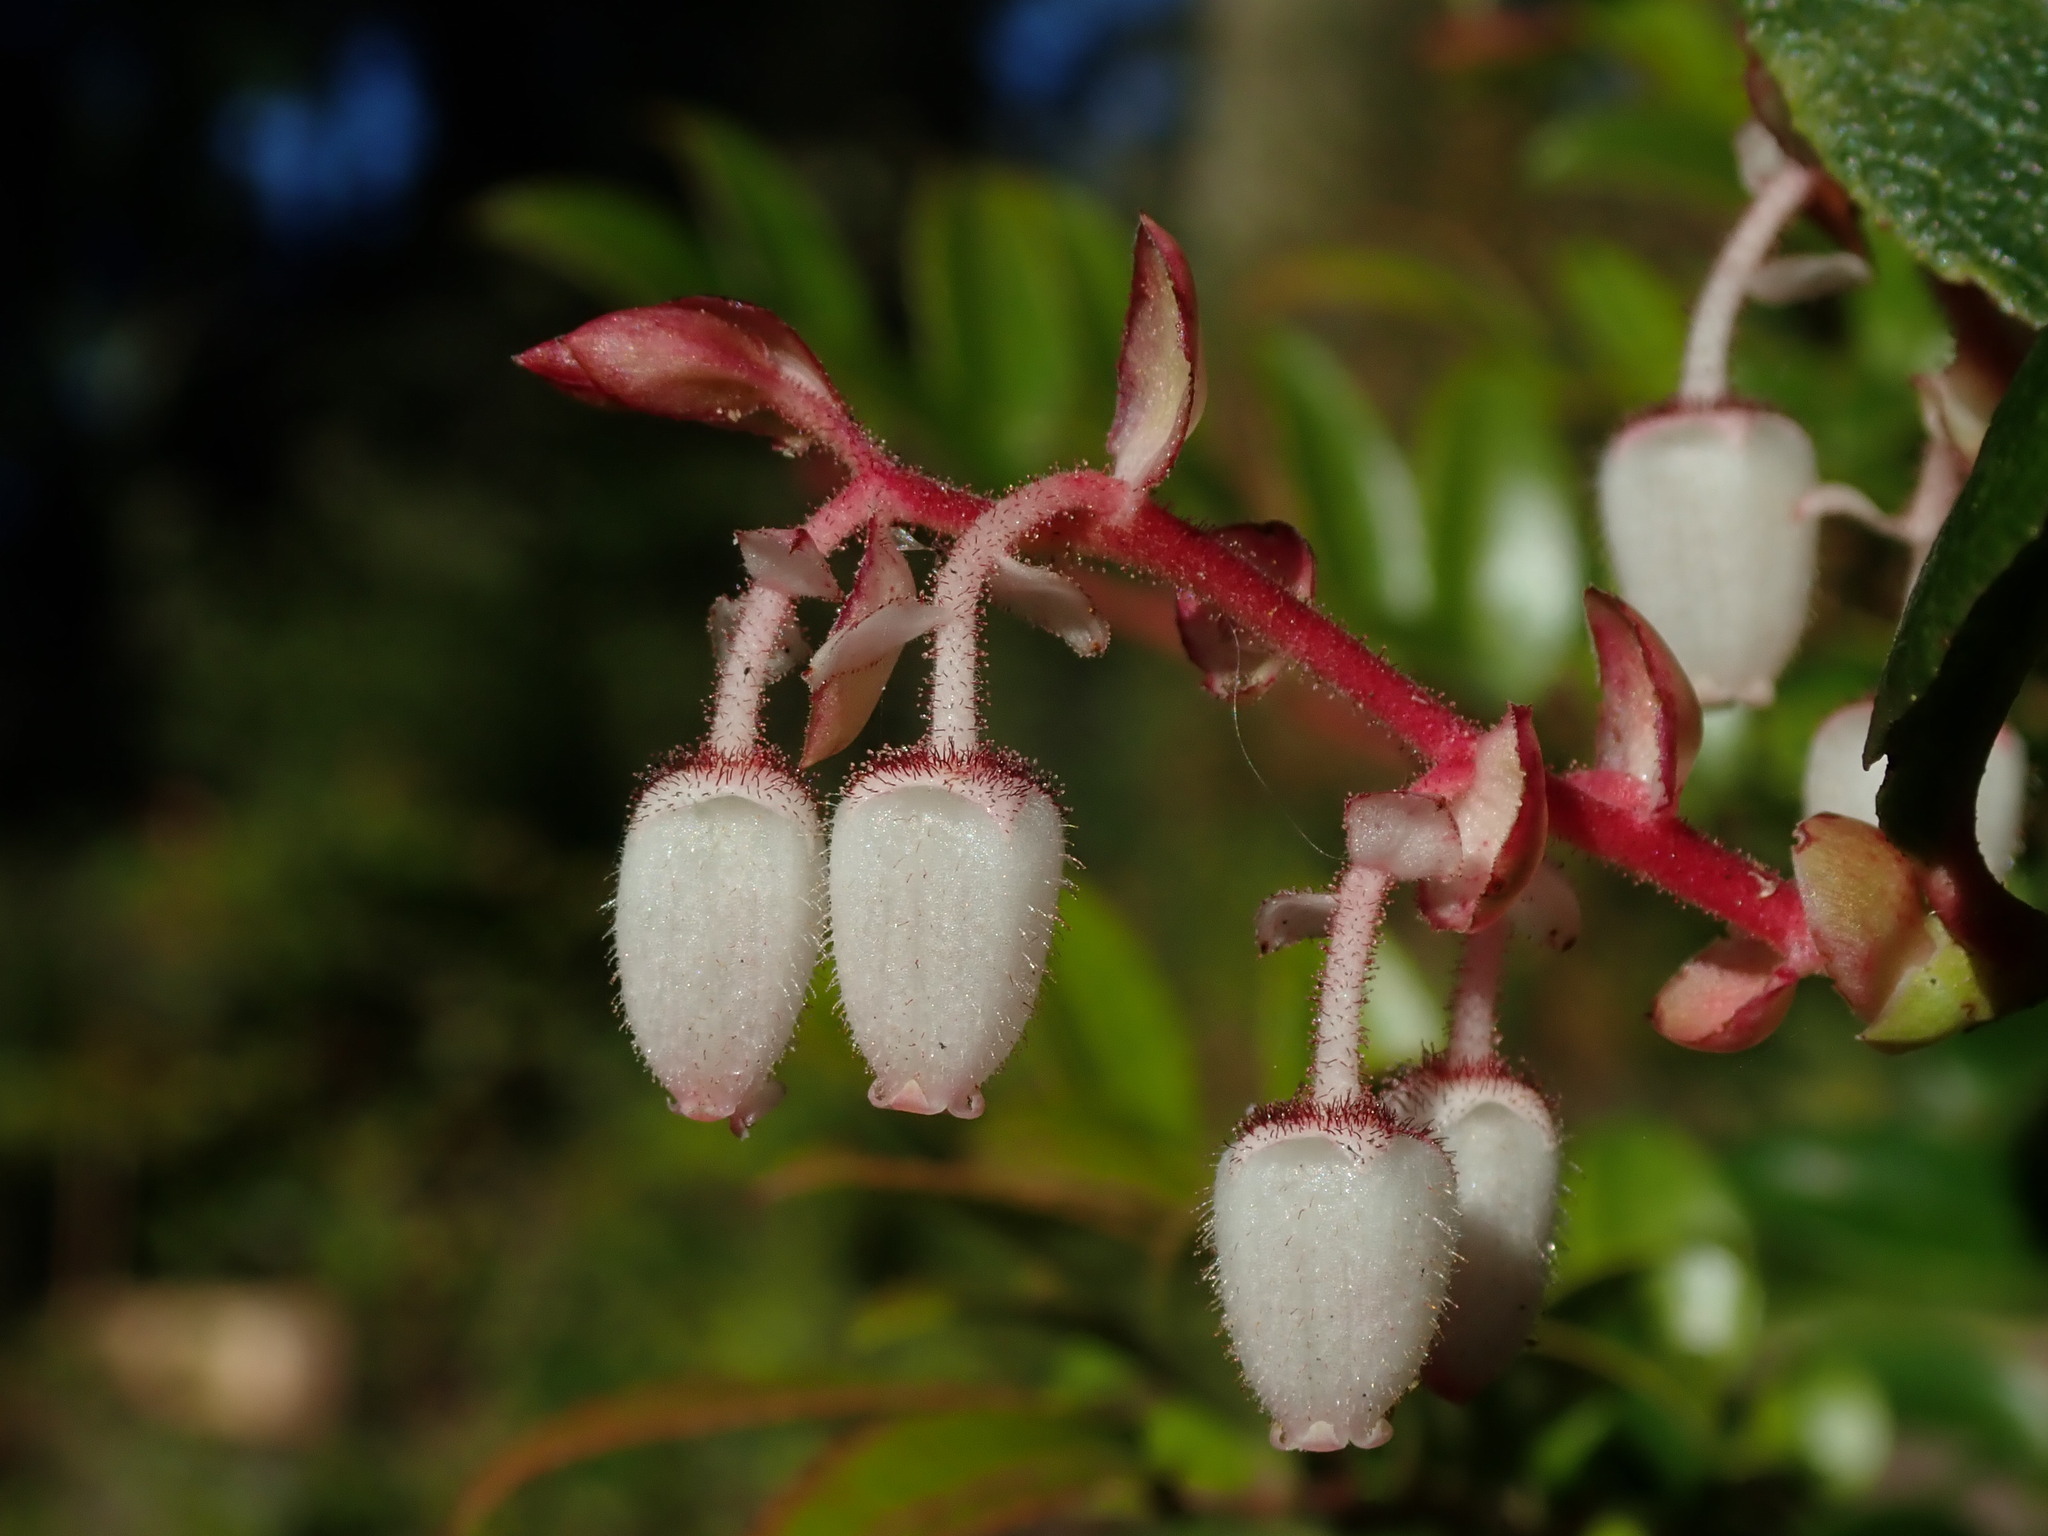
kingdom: Plantae
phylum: Tracheophyta
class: Magnoliopsida
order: Ericales
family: Ericaceae
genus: Gaultheria
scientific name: Gaultheria shallon
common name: Shallon
